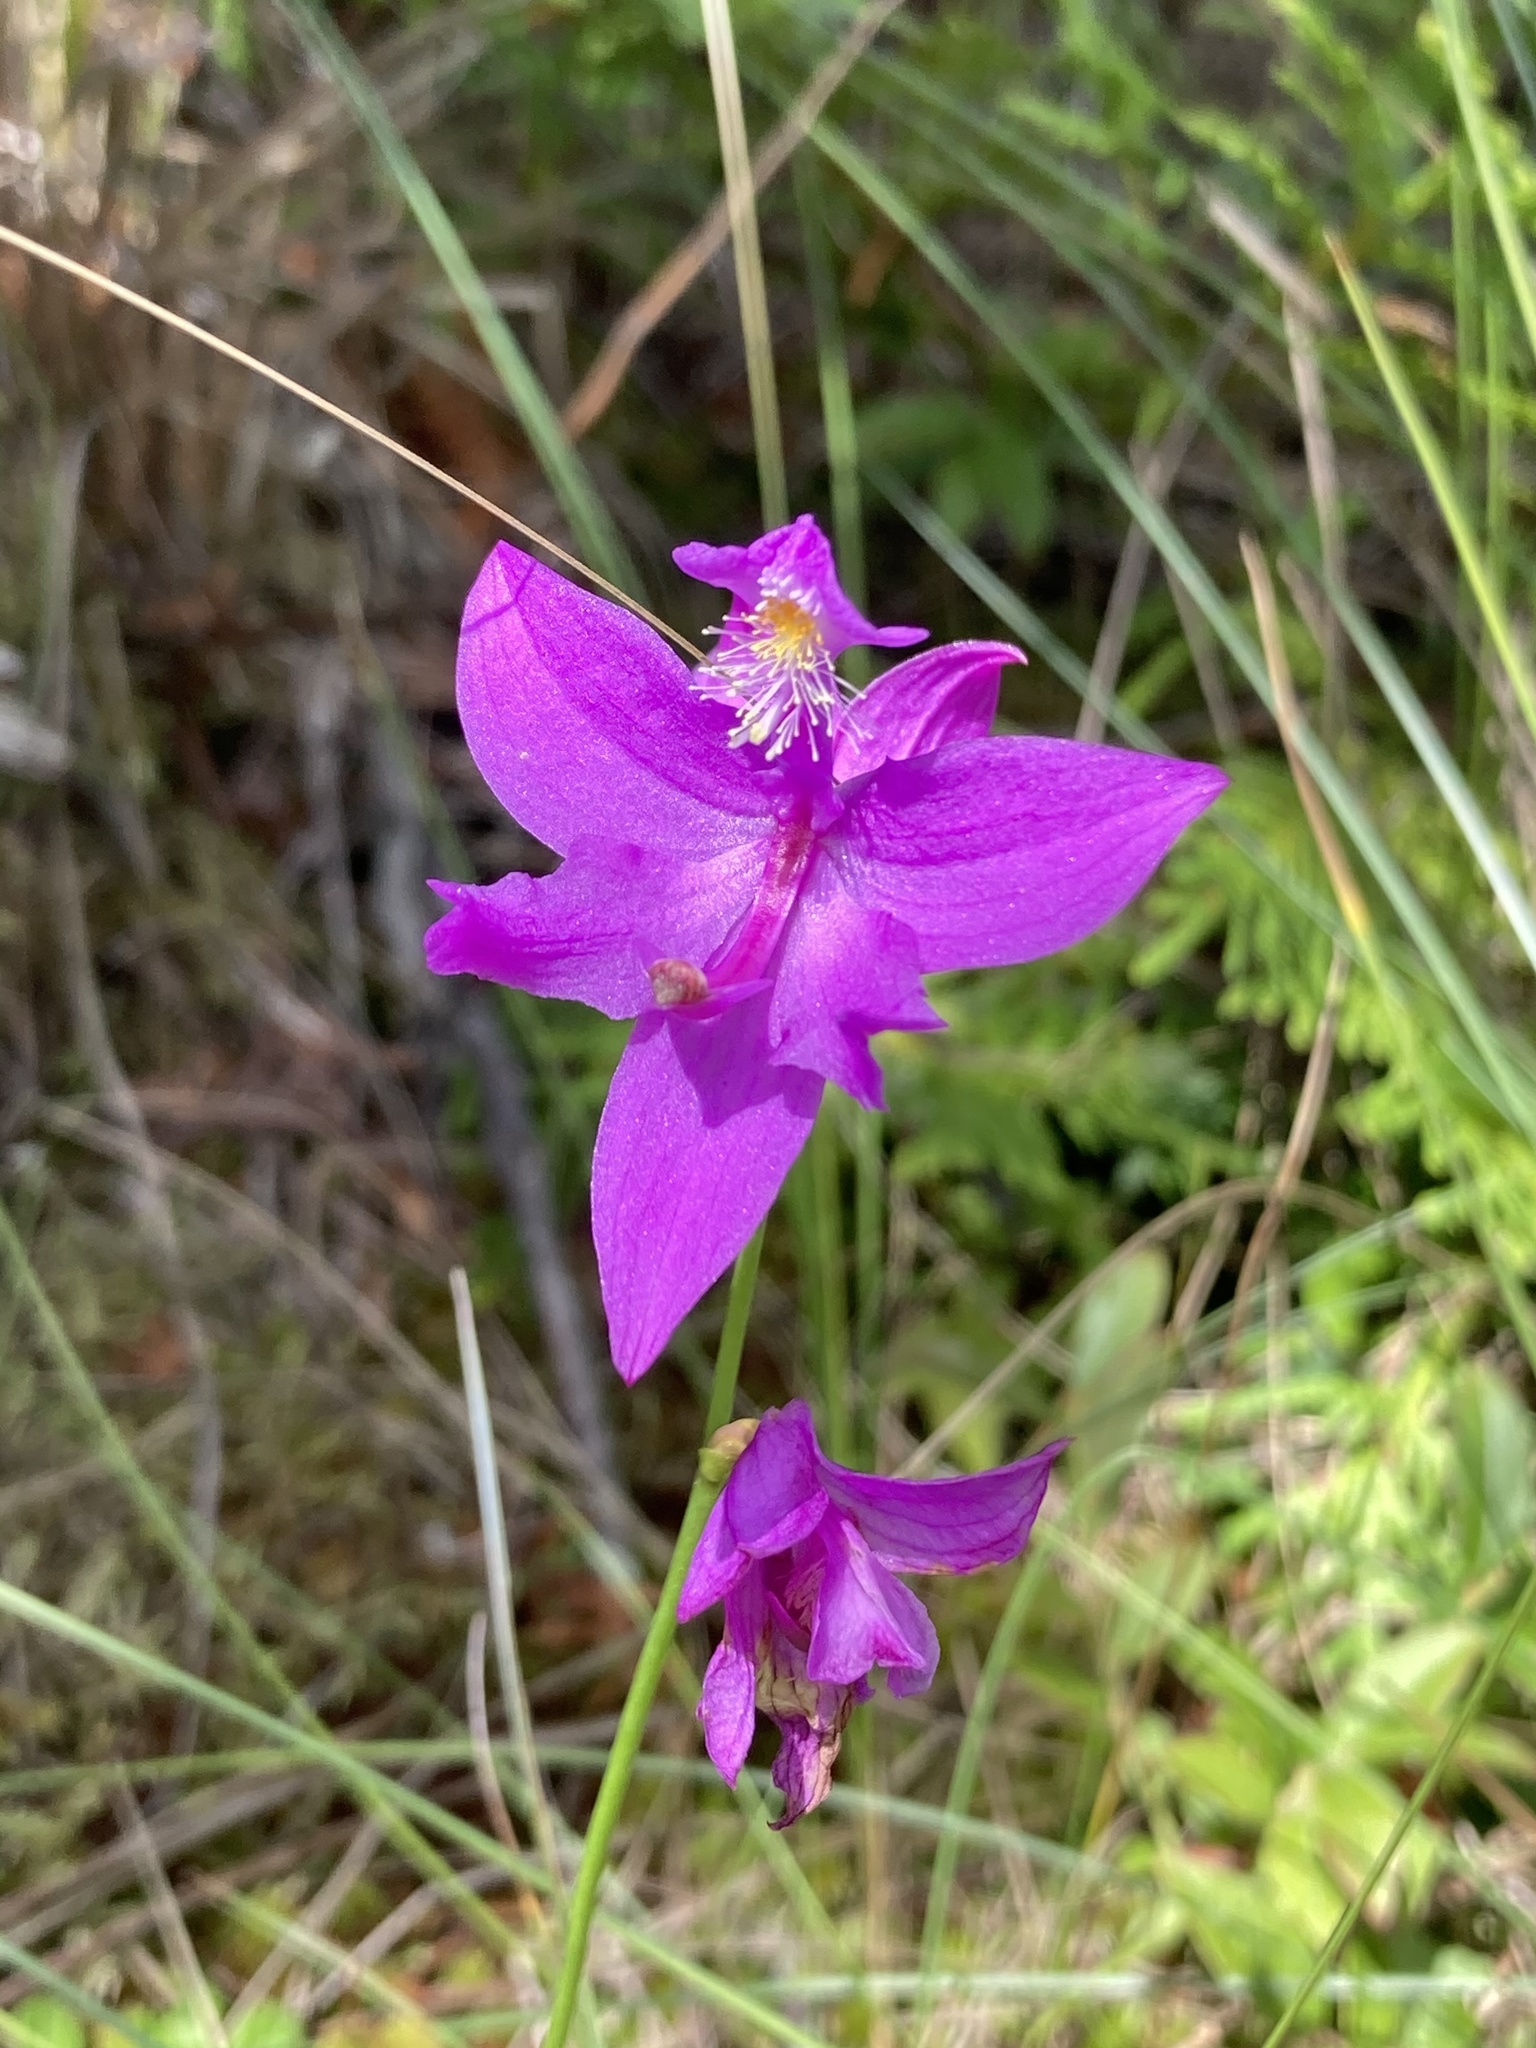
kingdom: Plantae
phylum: Tracheophyta
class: Liliopsida
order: Asparagales
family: Orchidaceae
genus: Calopogon
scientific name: Calopogon tuberosus
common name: Grass-pink
